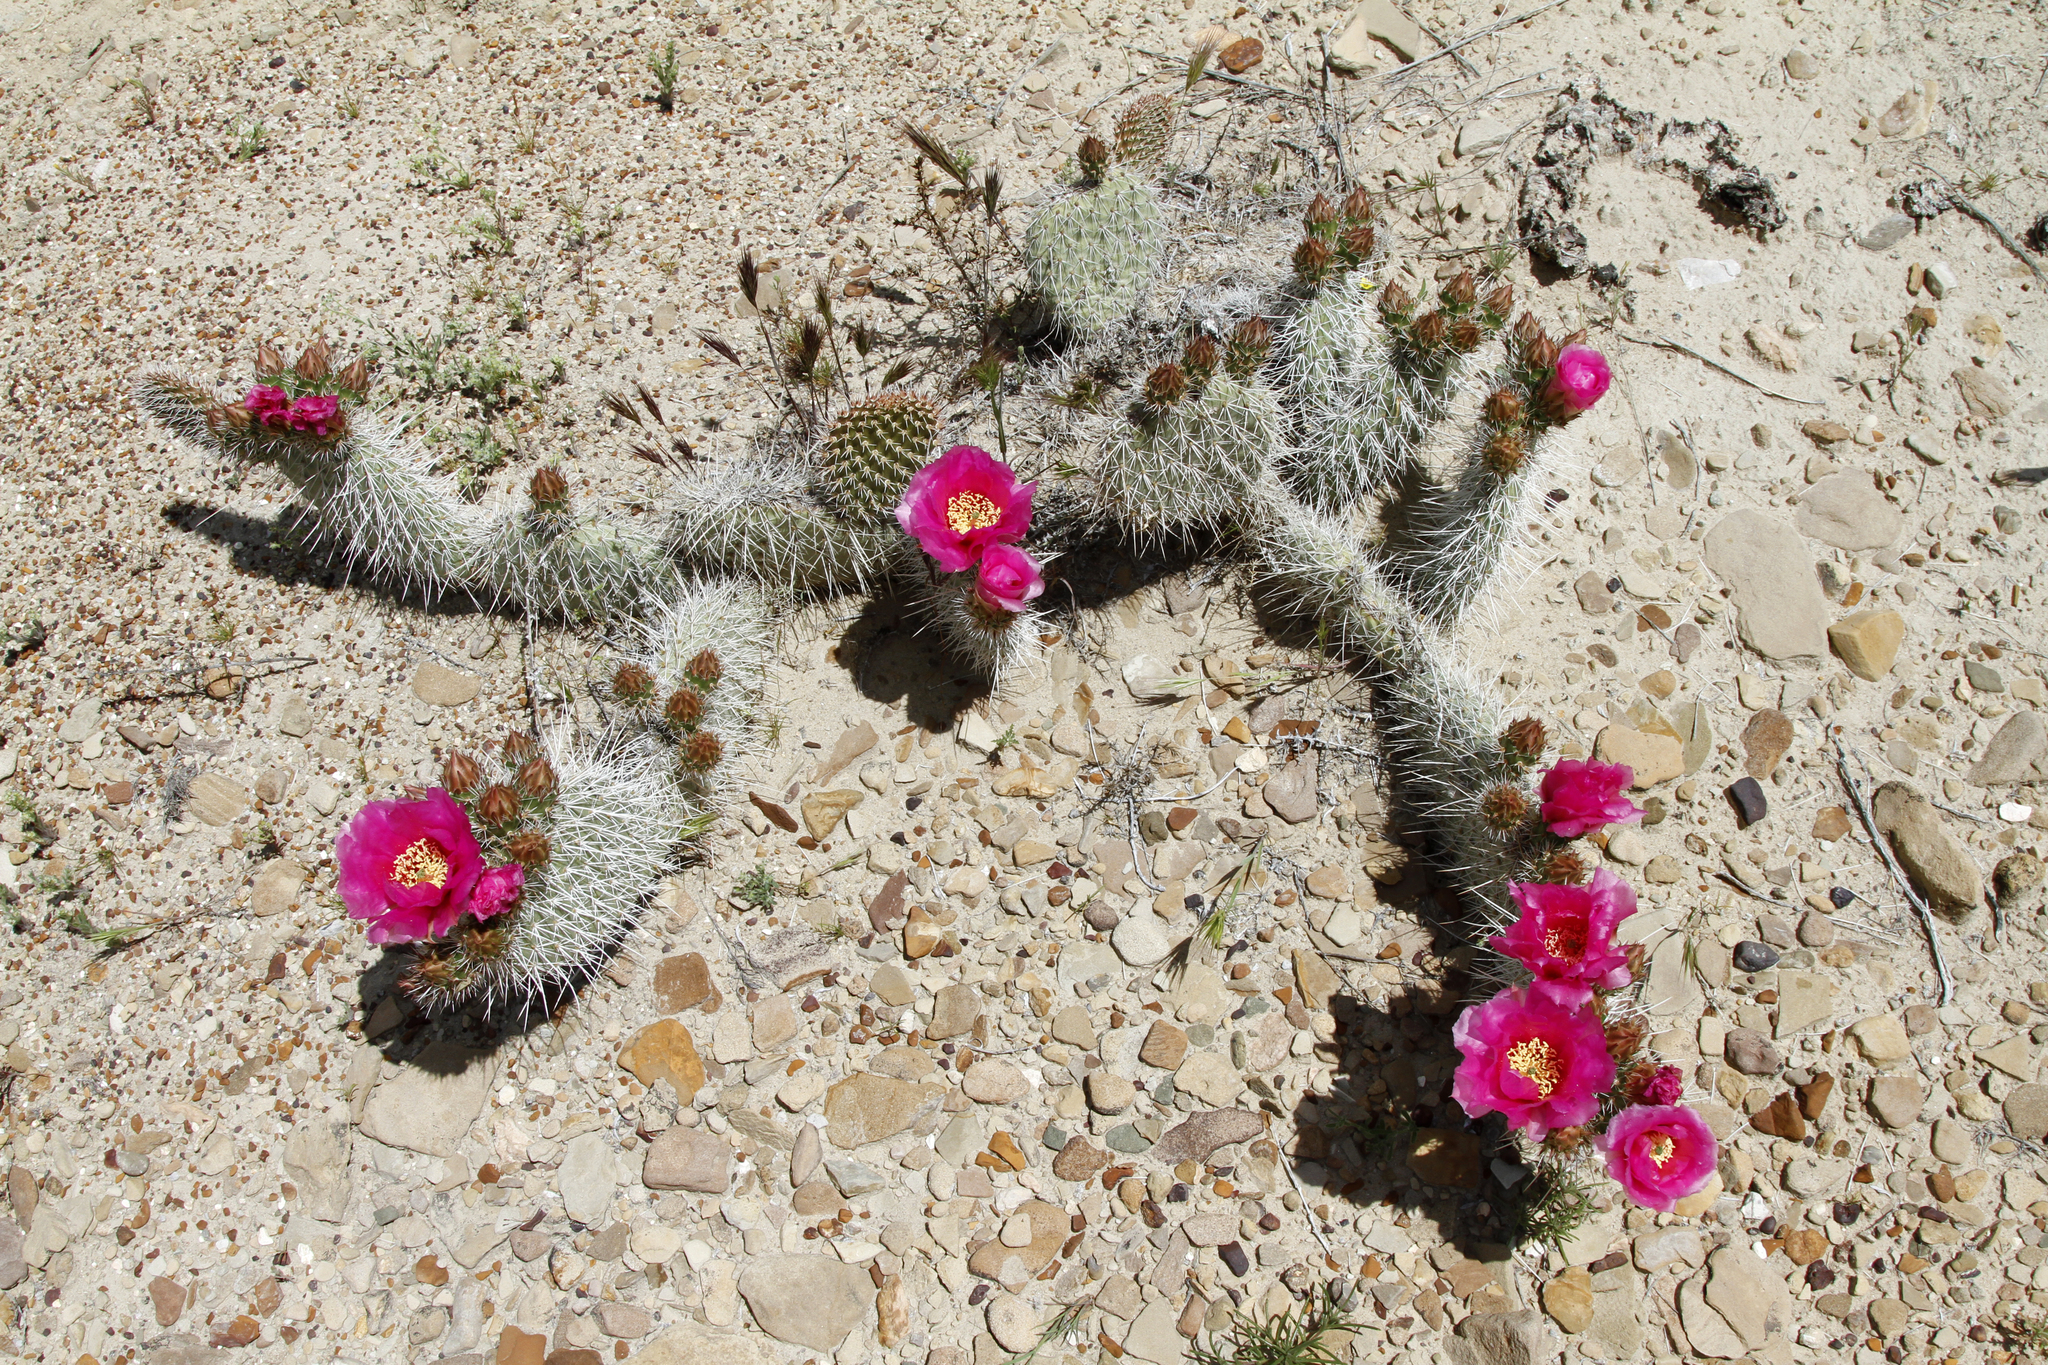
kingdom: Plantae
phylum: Tracheophyta
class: Magnoliopsida
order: Caryophyllales
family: Cactaceae
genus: Opuntia
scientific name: Opuntia polyacantha
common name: Plains prickly-pear
